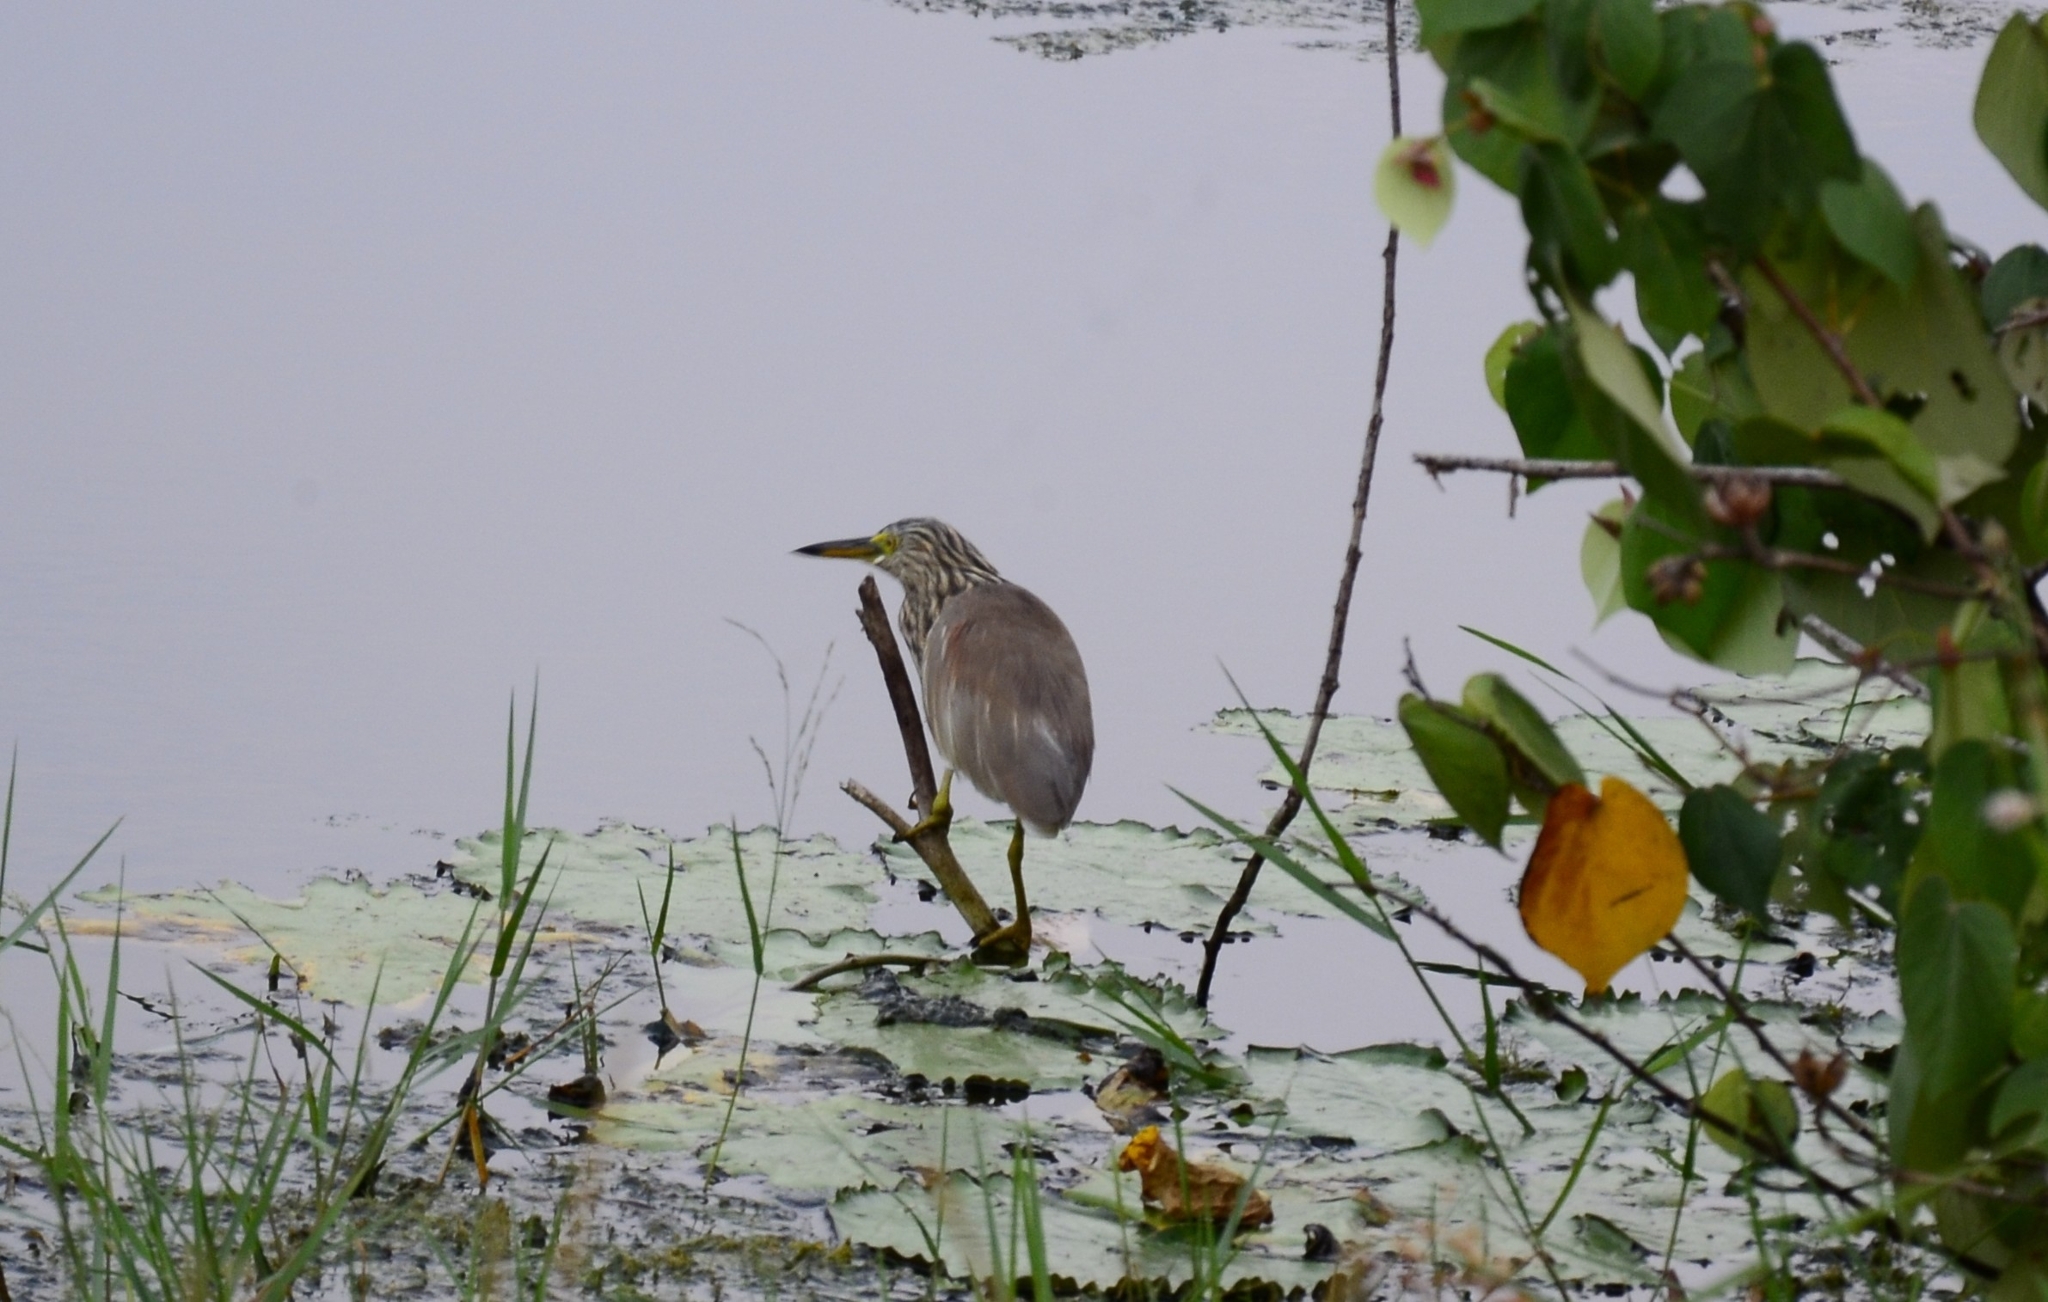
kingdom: Animalia
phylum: Chordata
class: Aves
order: Pelecaniformes
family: Ardeidae
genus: Ardeola
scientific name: Ardeola grayii
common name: Indian pond heron
